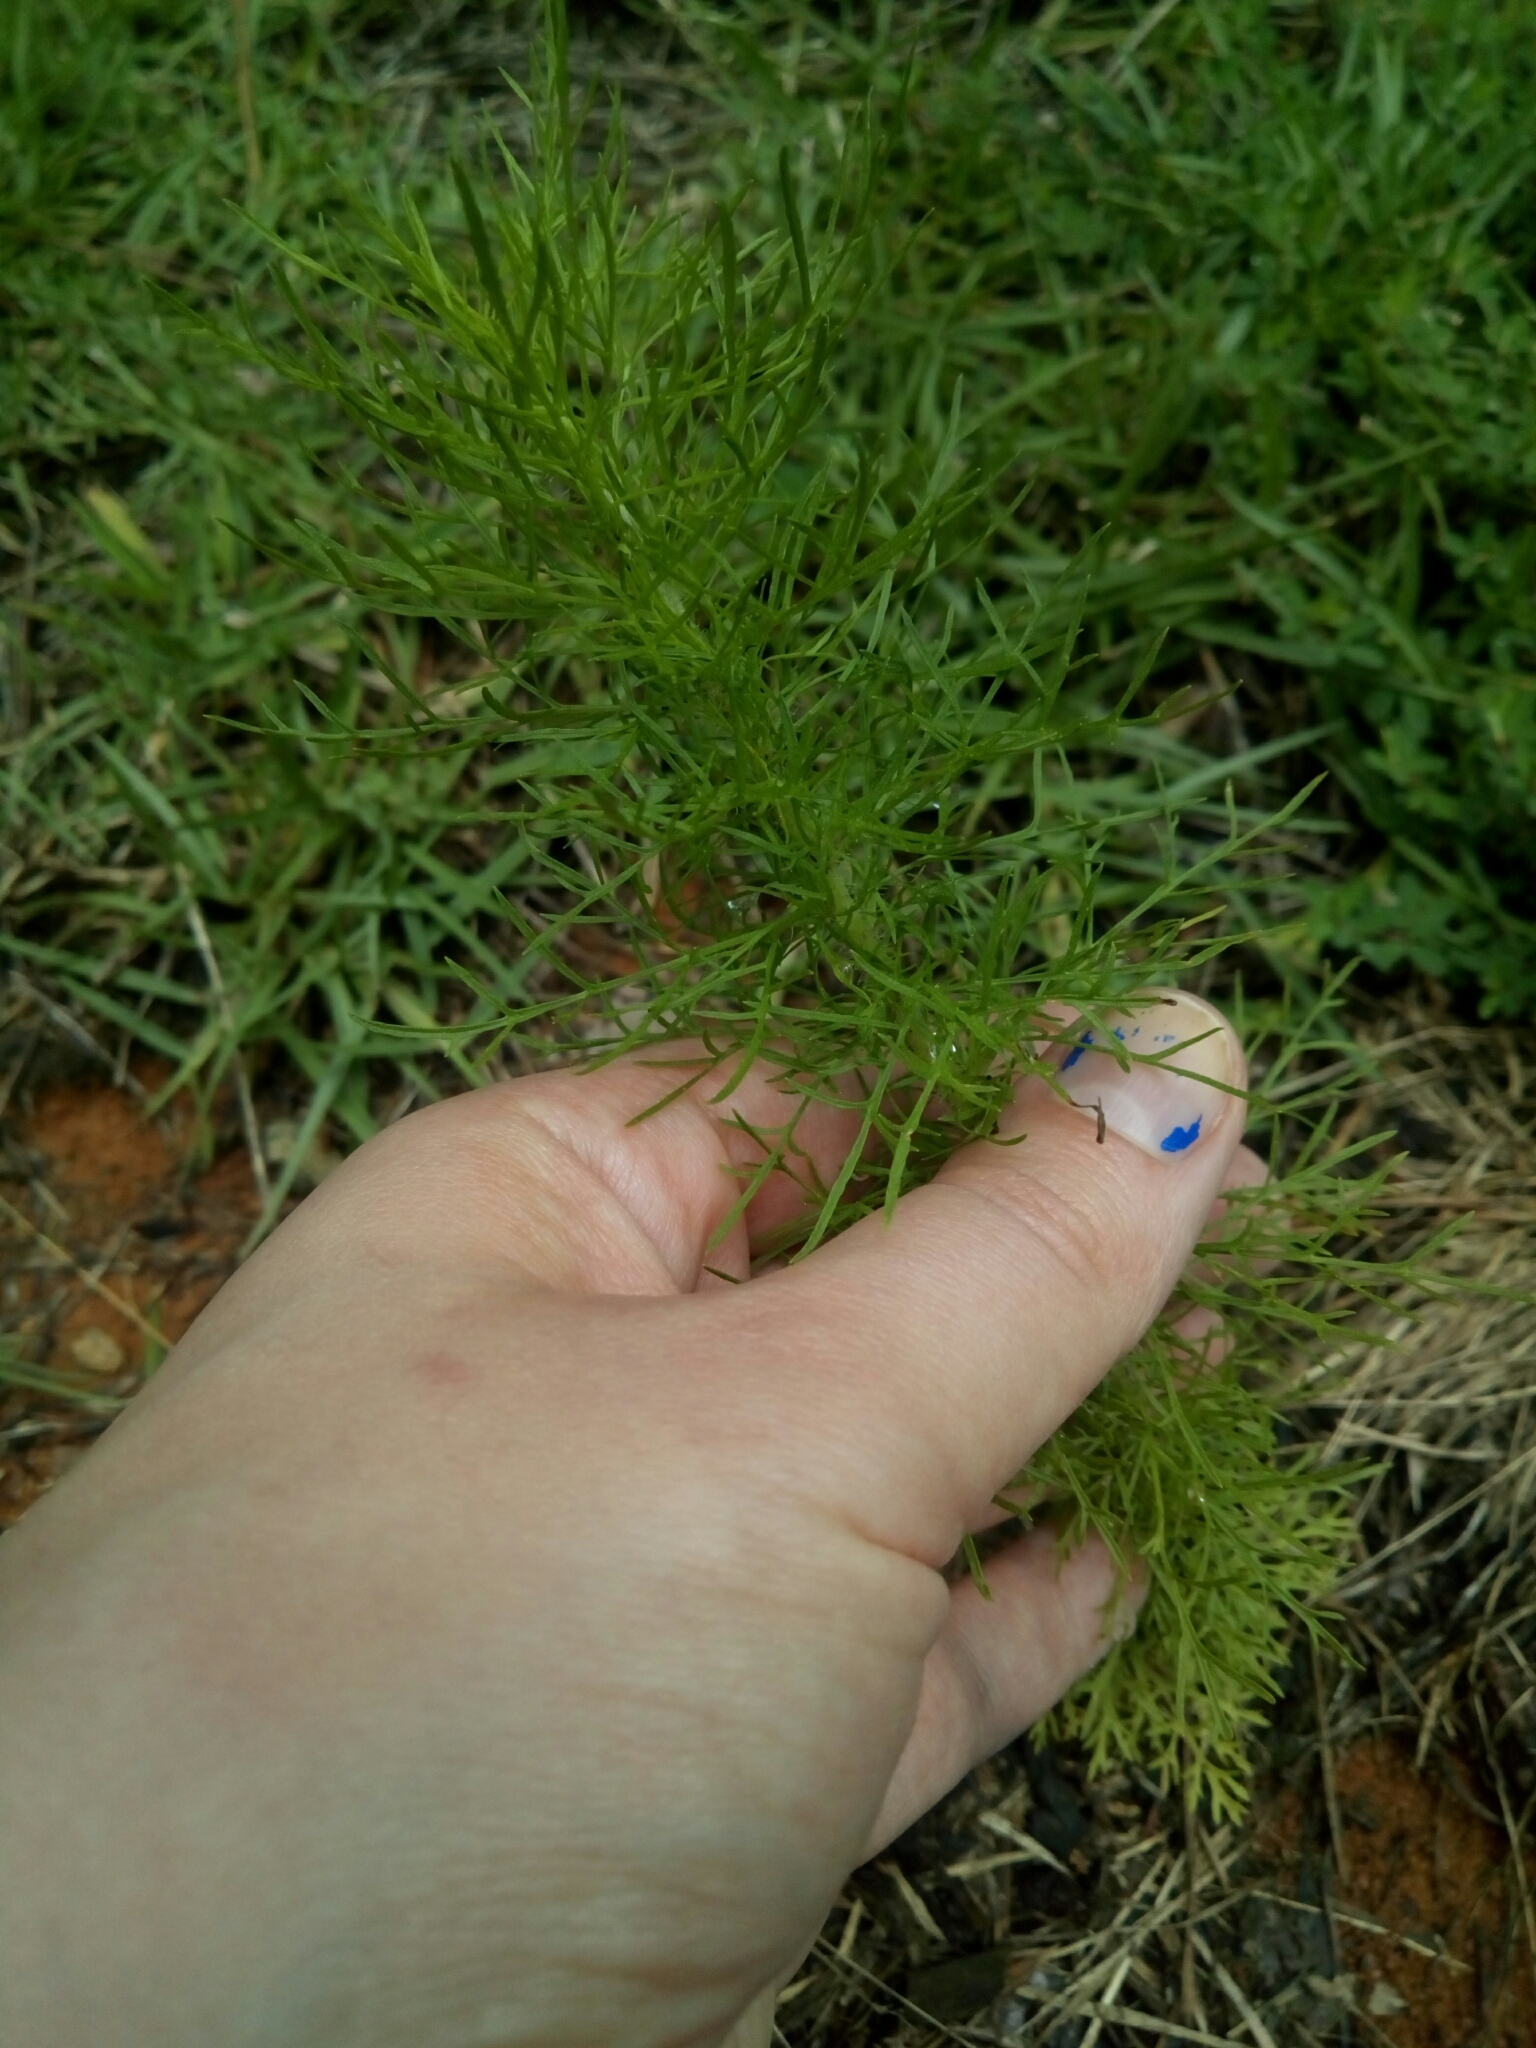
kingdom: Plantae
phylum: Tracheophyta
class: Magnoliopsida
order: Asterales
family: Asteraceae
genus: Eupatorium
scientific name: Eupatorium capillifolium
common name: Dog-fennel
